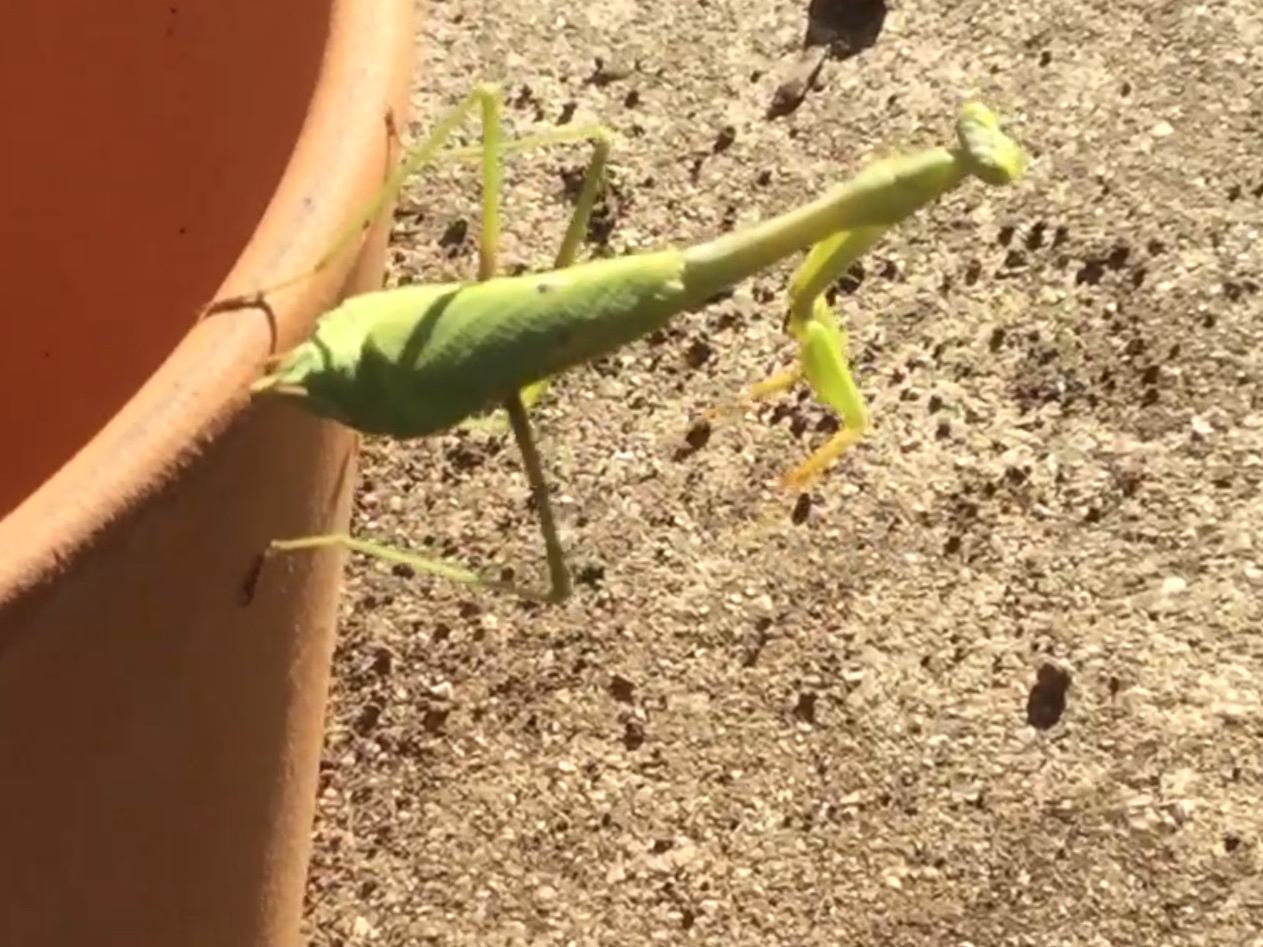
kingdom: Animalia
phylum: Arthropoda
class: Insecta
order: Mantodea
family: Mantidae
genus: Stagmomantis
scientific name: Stagmomantis carolina
